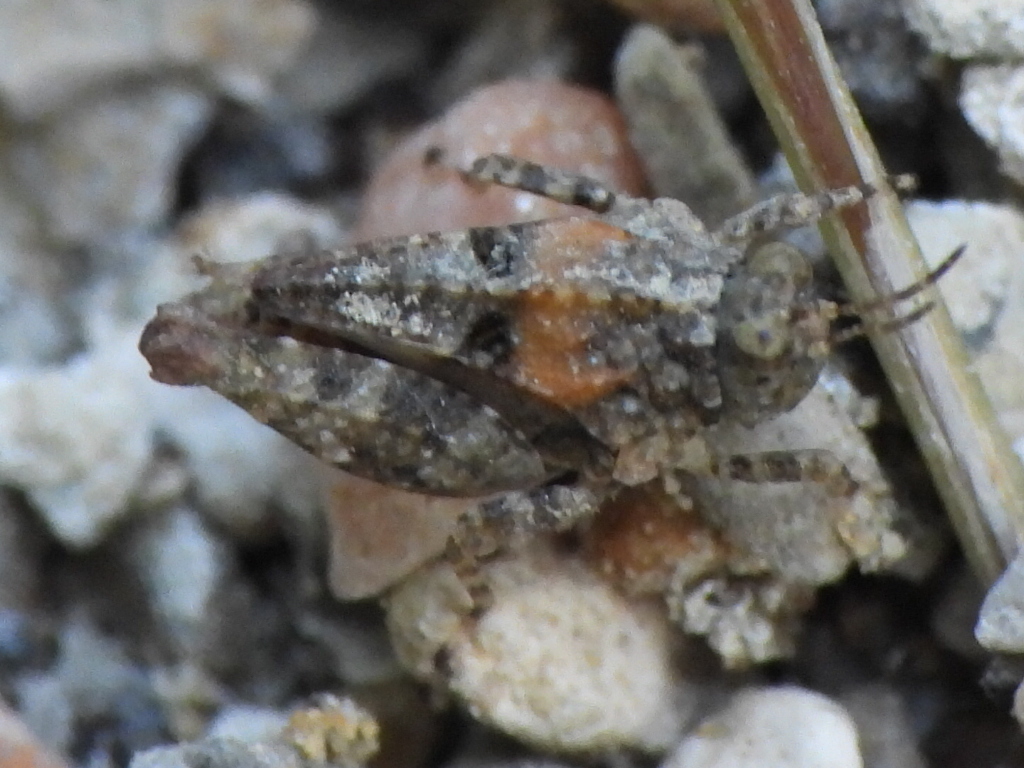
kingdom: Animalia
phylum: Arthropoda
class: Insecta
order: Orthoptera
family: Tetrigidae
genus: Paratettix
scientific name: Paratettix mexicanus
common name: Mexican pygmy grasshopper
